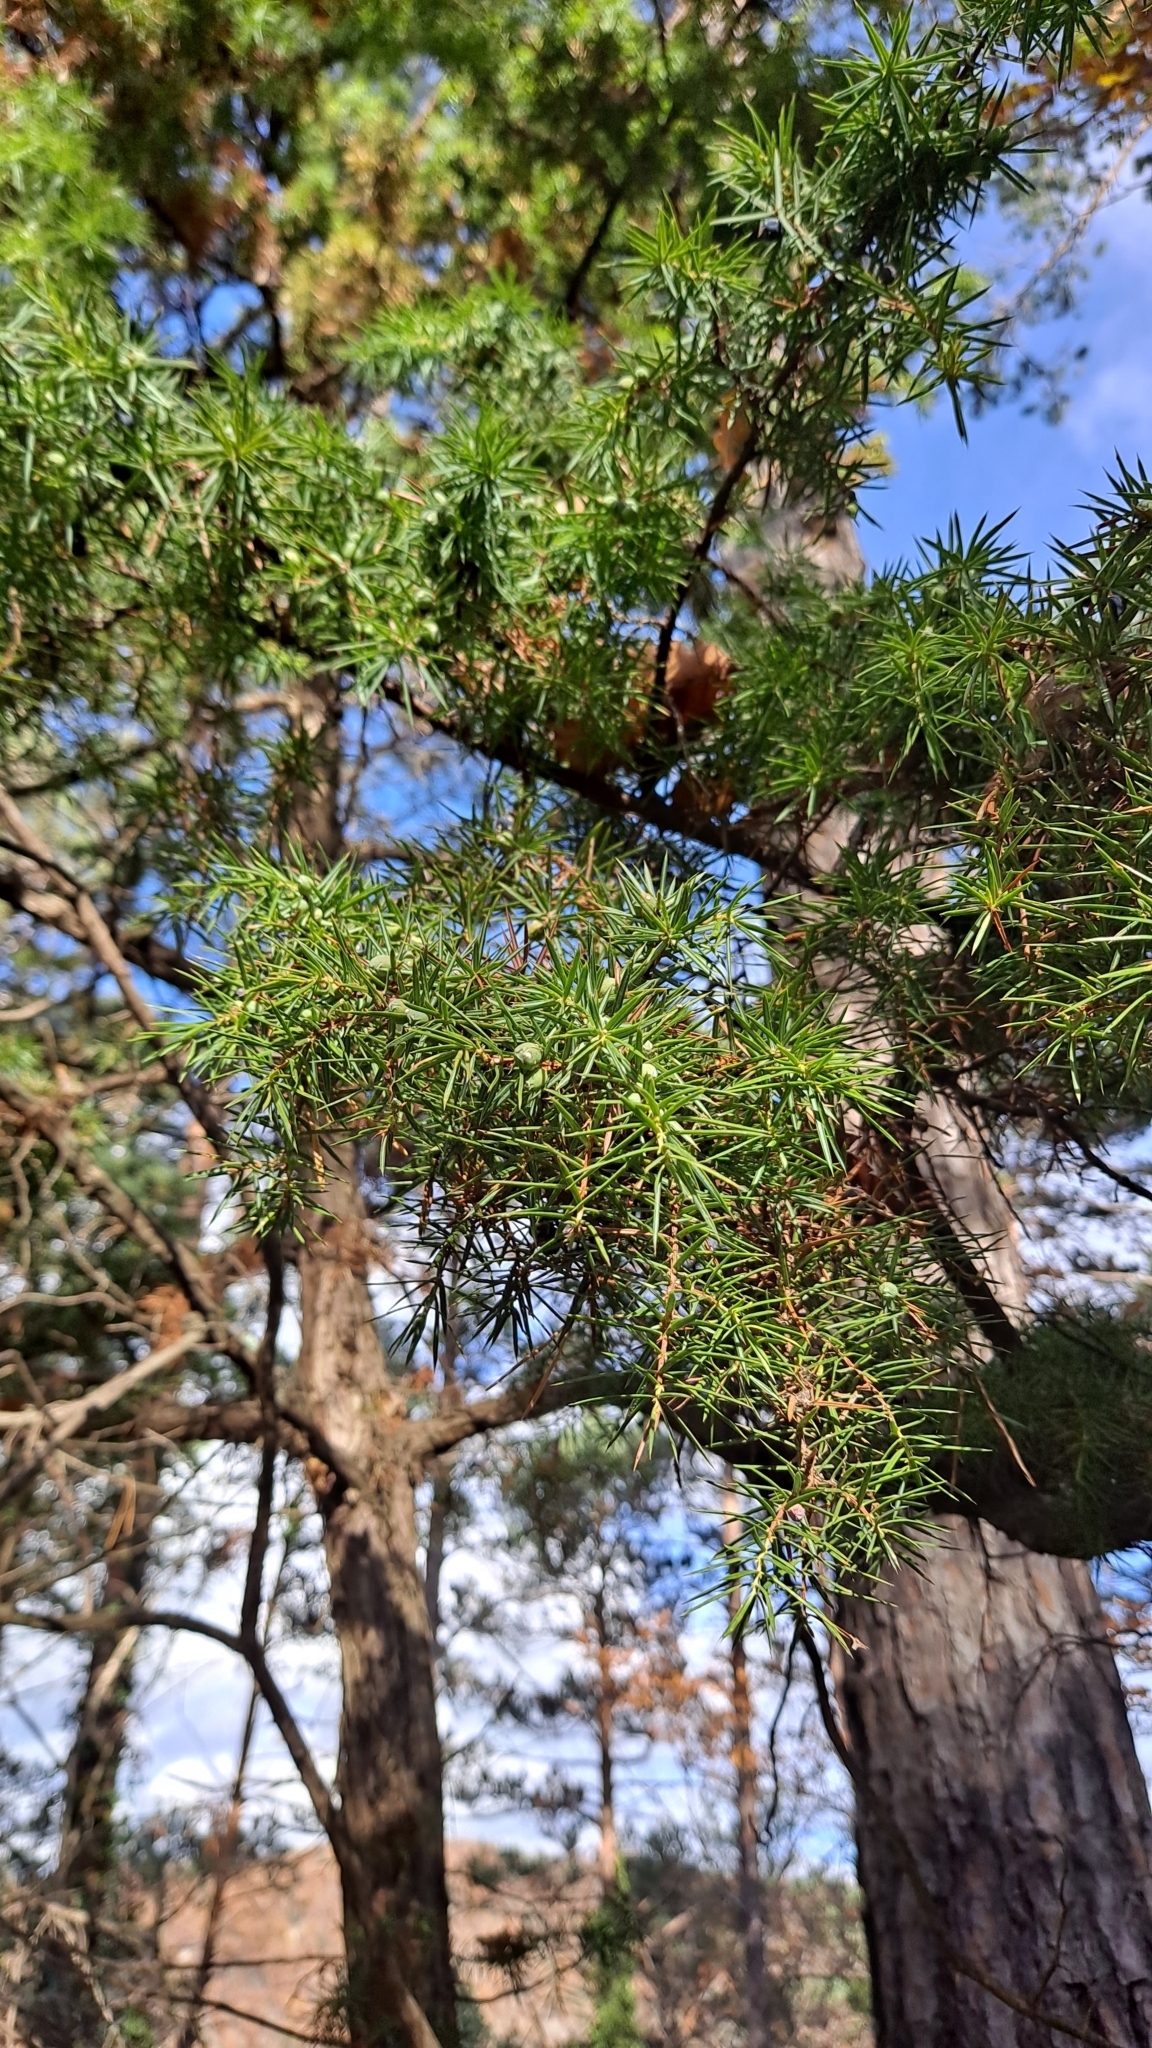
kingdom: Plantae
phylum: Tracheophyta
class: Pinopsida
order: Pinales
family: Cupressaceae
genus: Juniperus
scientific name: Juniperus communis
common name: Common juniper
